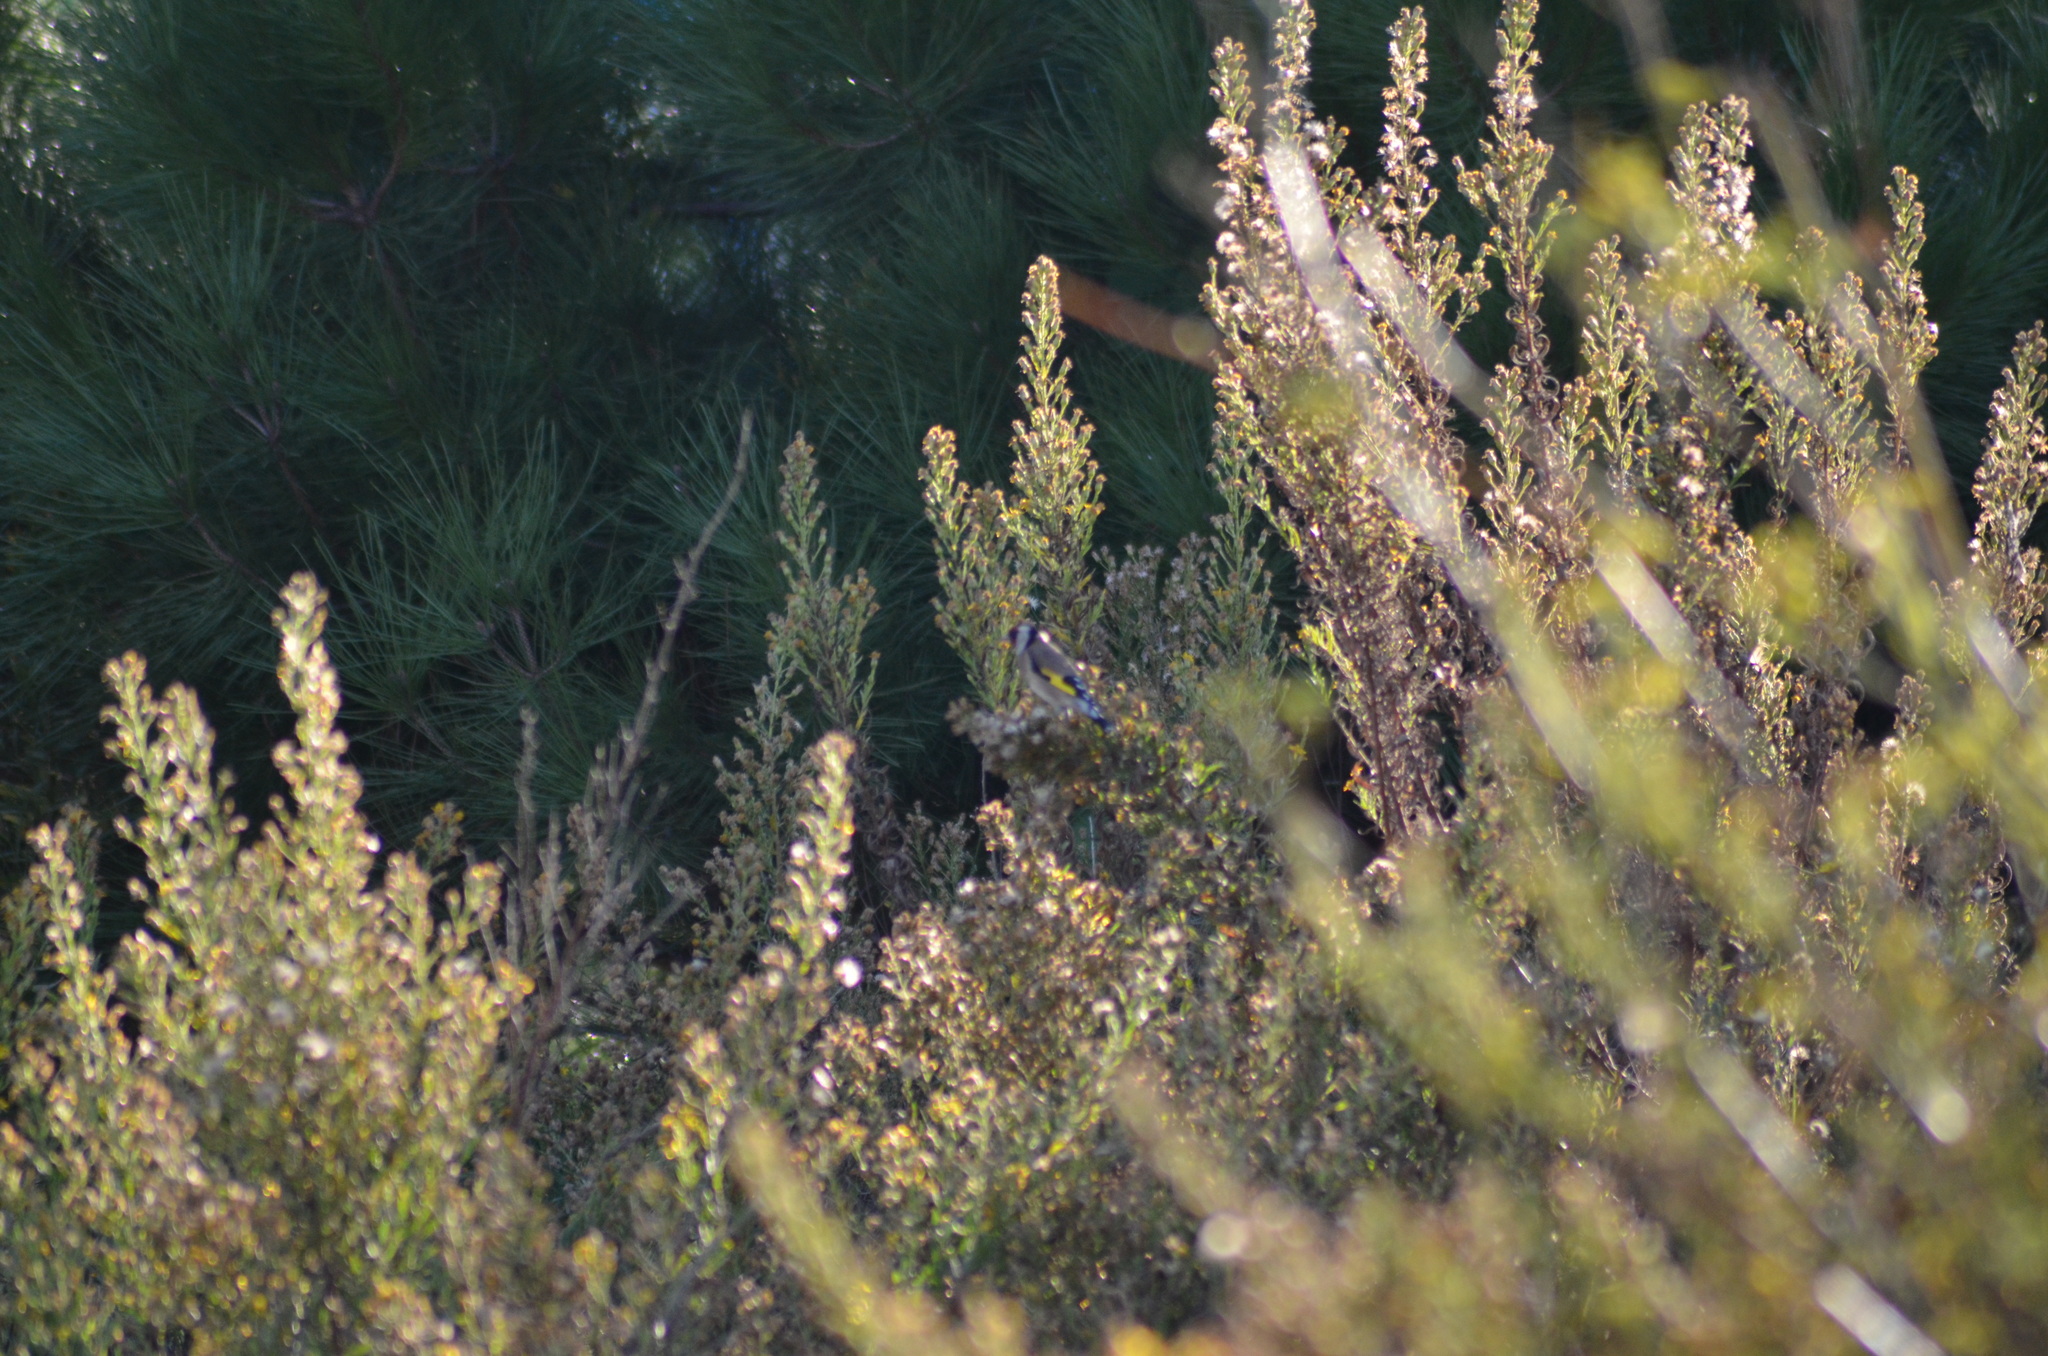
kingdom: Animalia
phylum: Chordata
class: Aves
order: Passeriformes
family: Fringillidae
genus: Carduelis
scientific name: Carduelis carduelis
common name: European goldfinch
